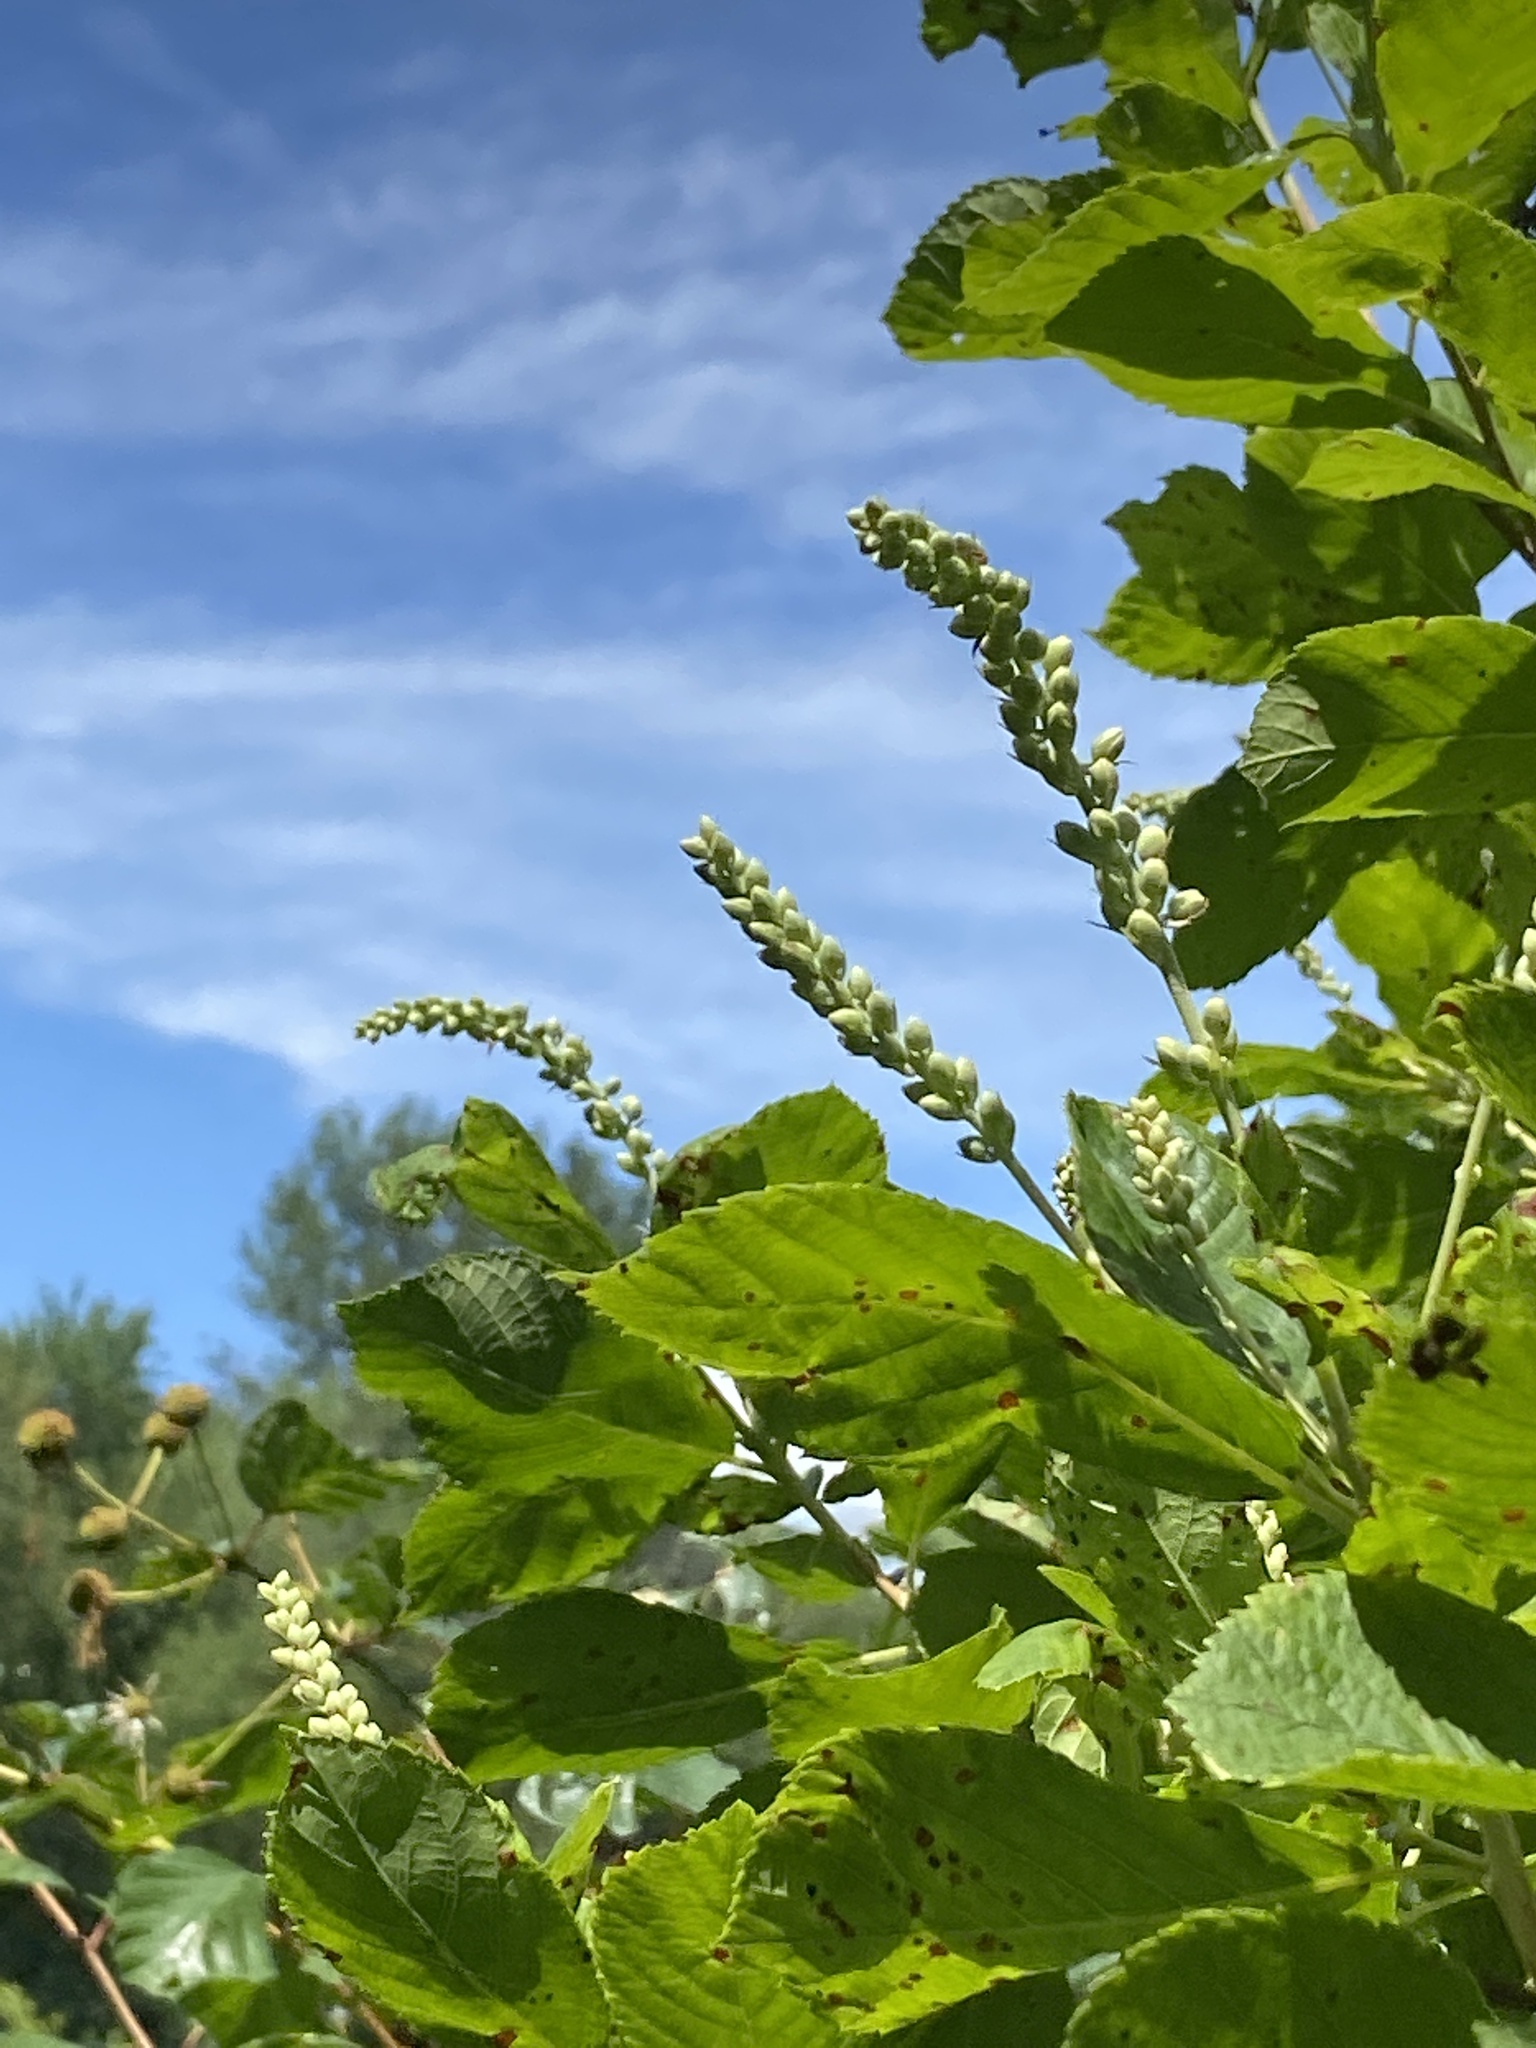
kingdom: Plantae
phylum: Tracheophyta
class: Magnoliopsida
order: Ericales
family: Clethraceae
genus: Clethra
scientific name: Clethra alnifolia
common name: Sweet pepperbush
